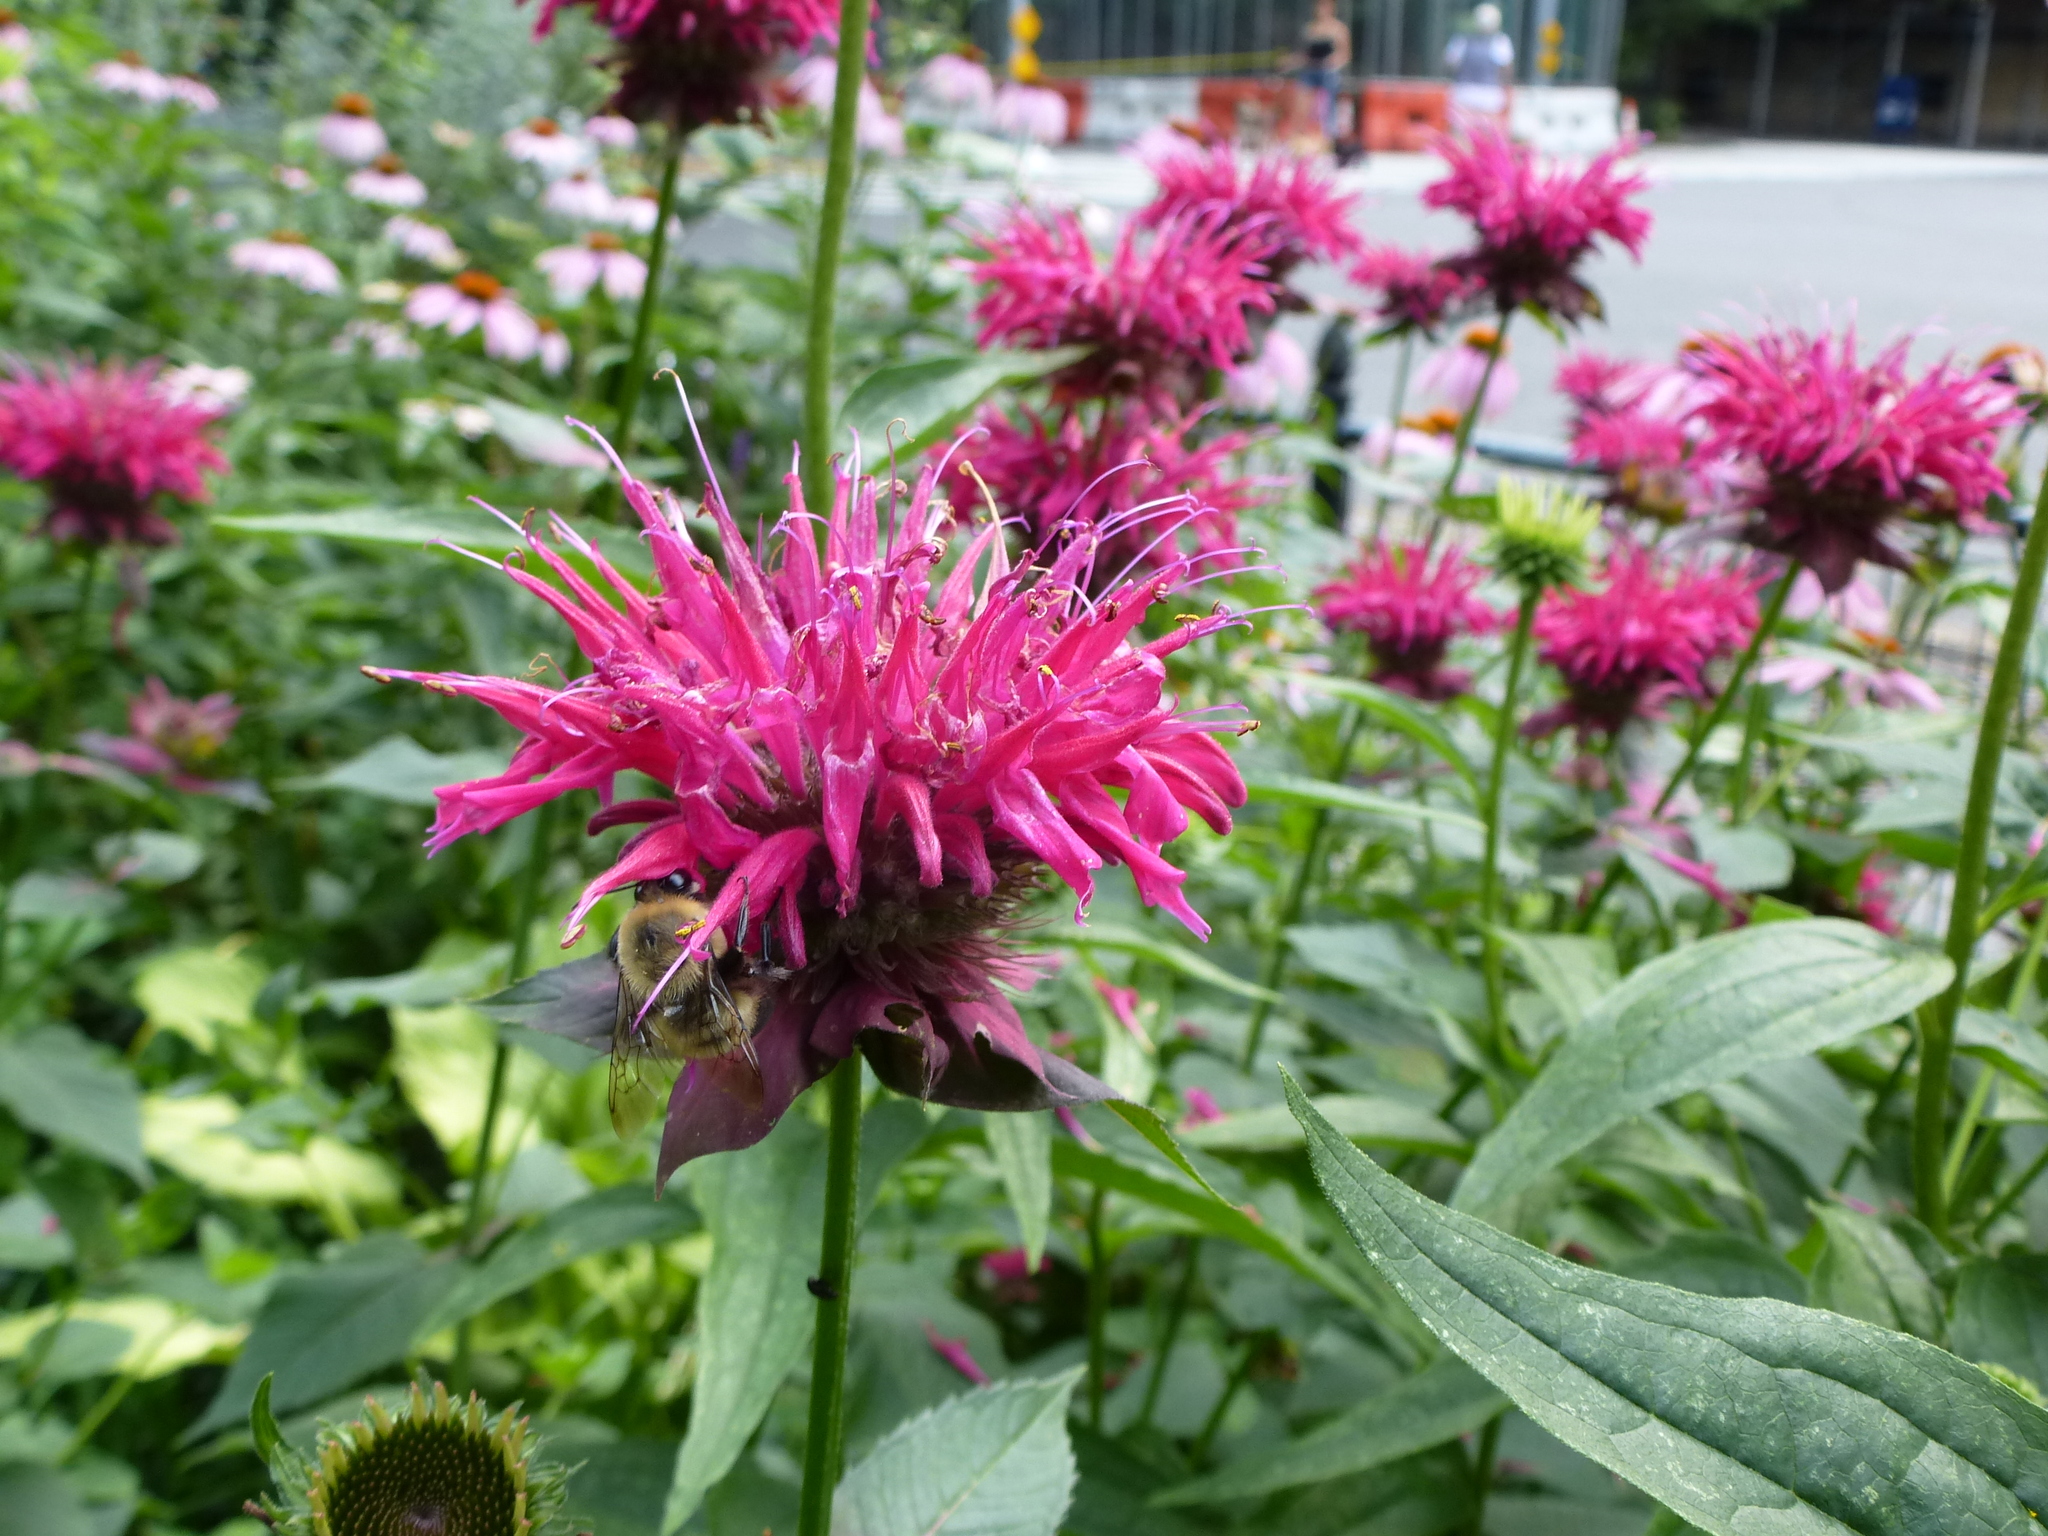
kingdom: Animalia
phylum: Arthropoda
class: Insecta
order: Hymenoptera
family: Apidae
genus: Bombus
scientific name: Bombus griseocollis
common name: Brown-belted bumble bee
